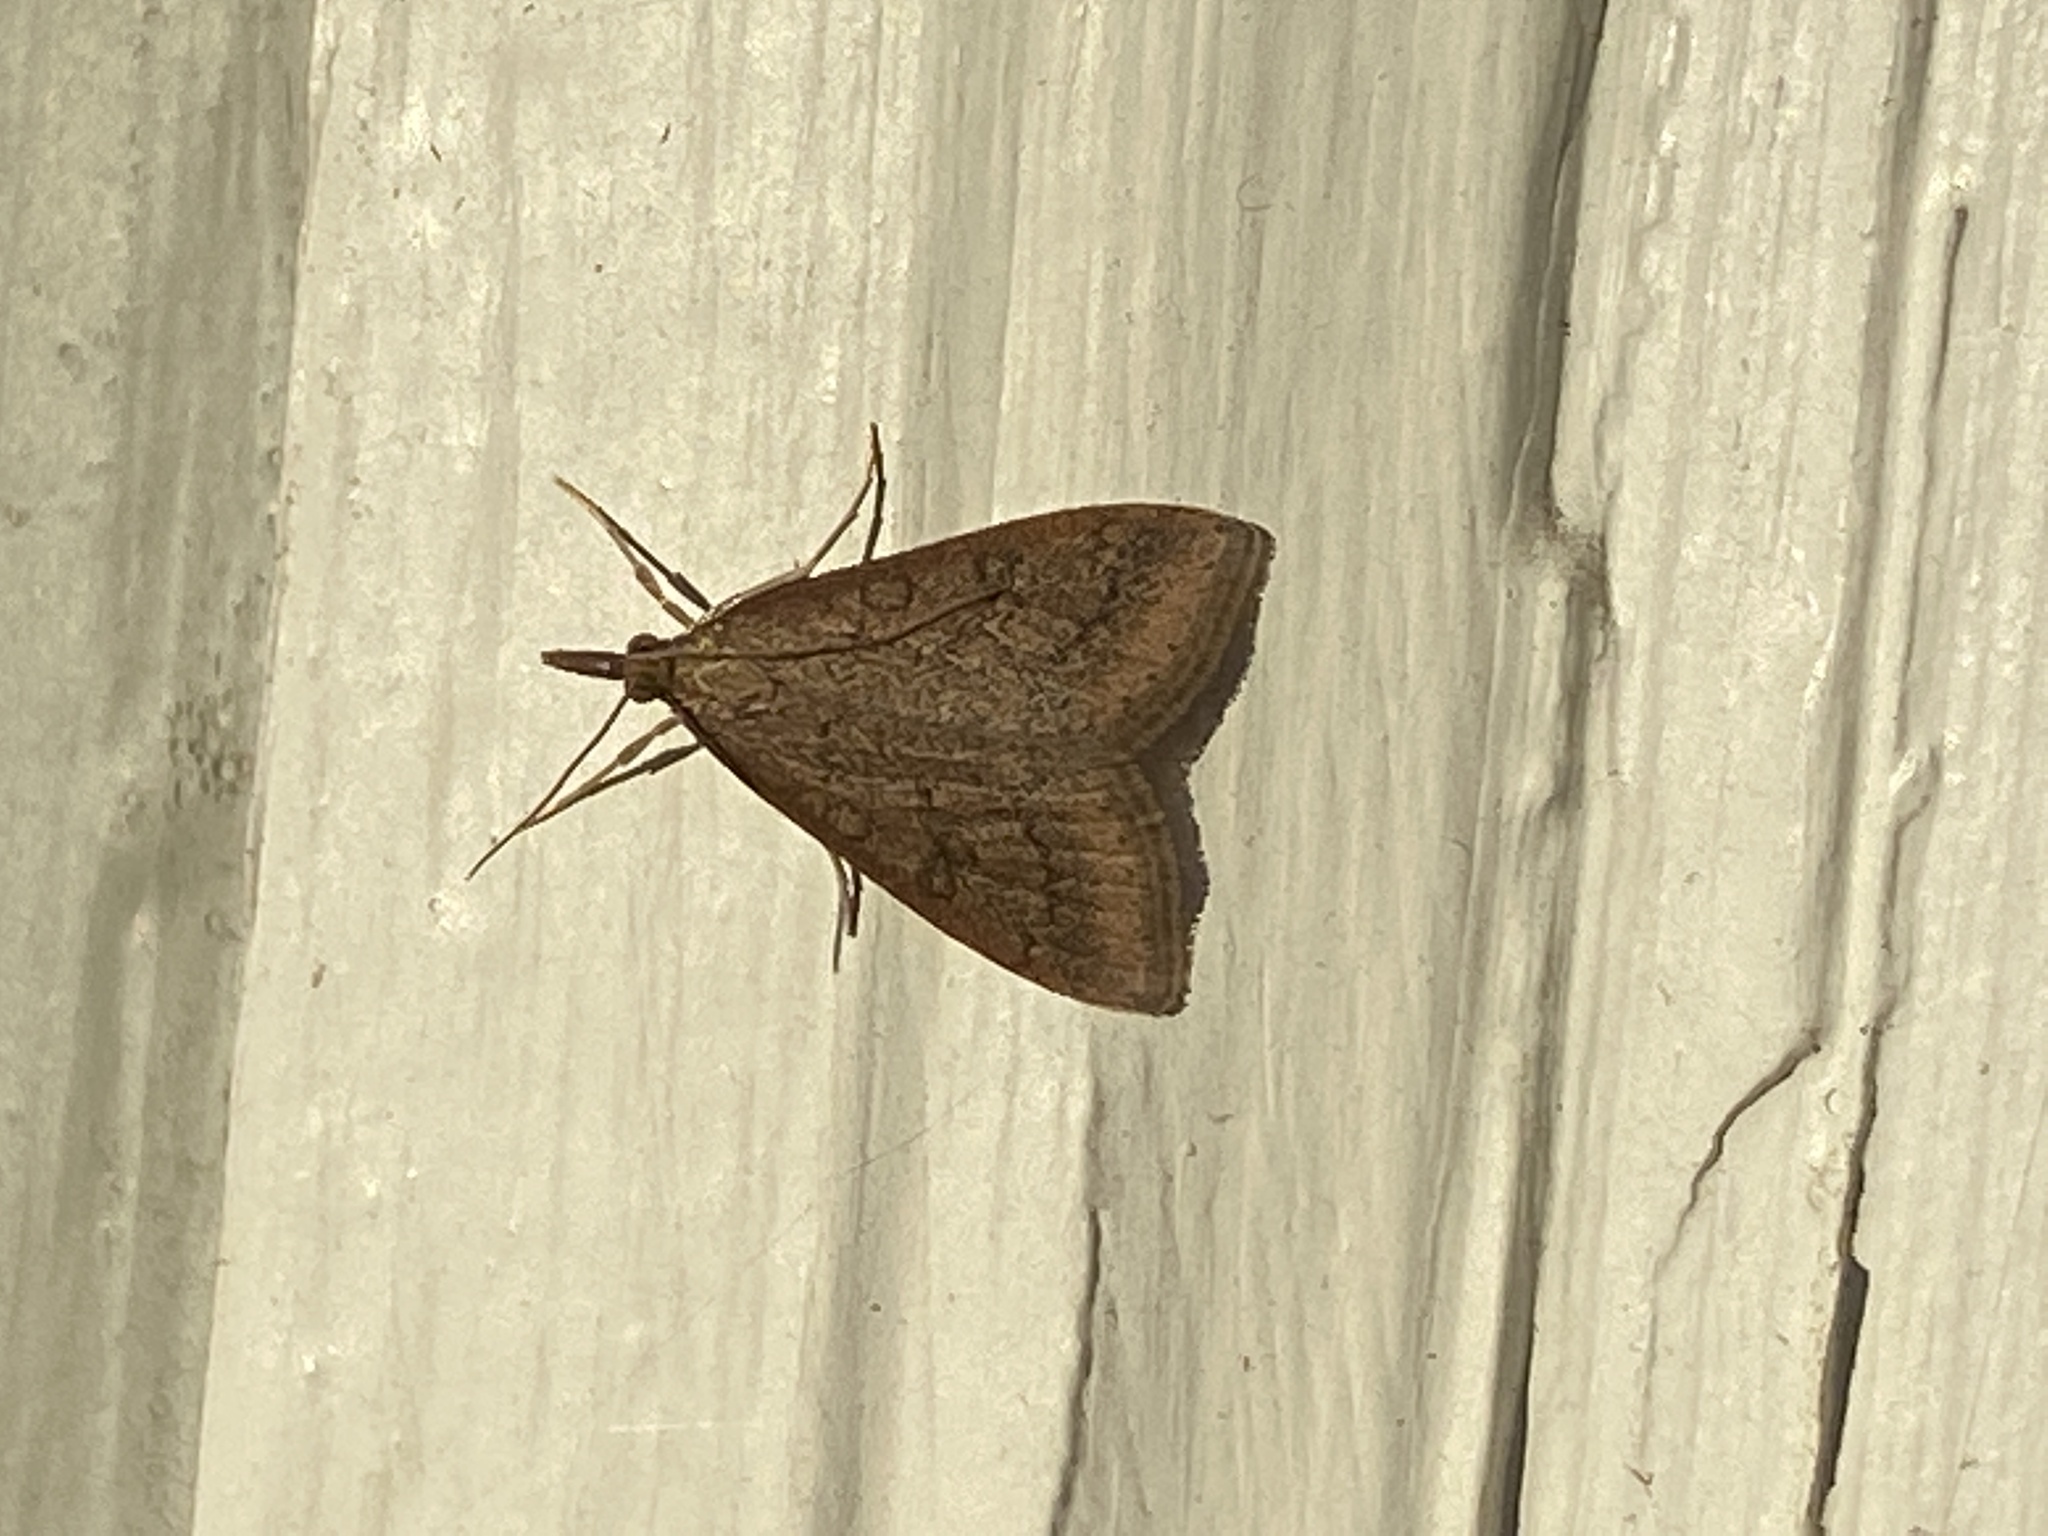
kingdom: Animalia
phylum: Arthropoda
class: Insecta
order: Lepidoptera
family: Crambidae
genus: Udea
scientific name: Udea rubigalis
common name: Celery leaftier moth
